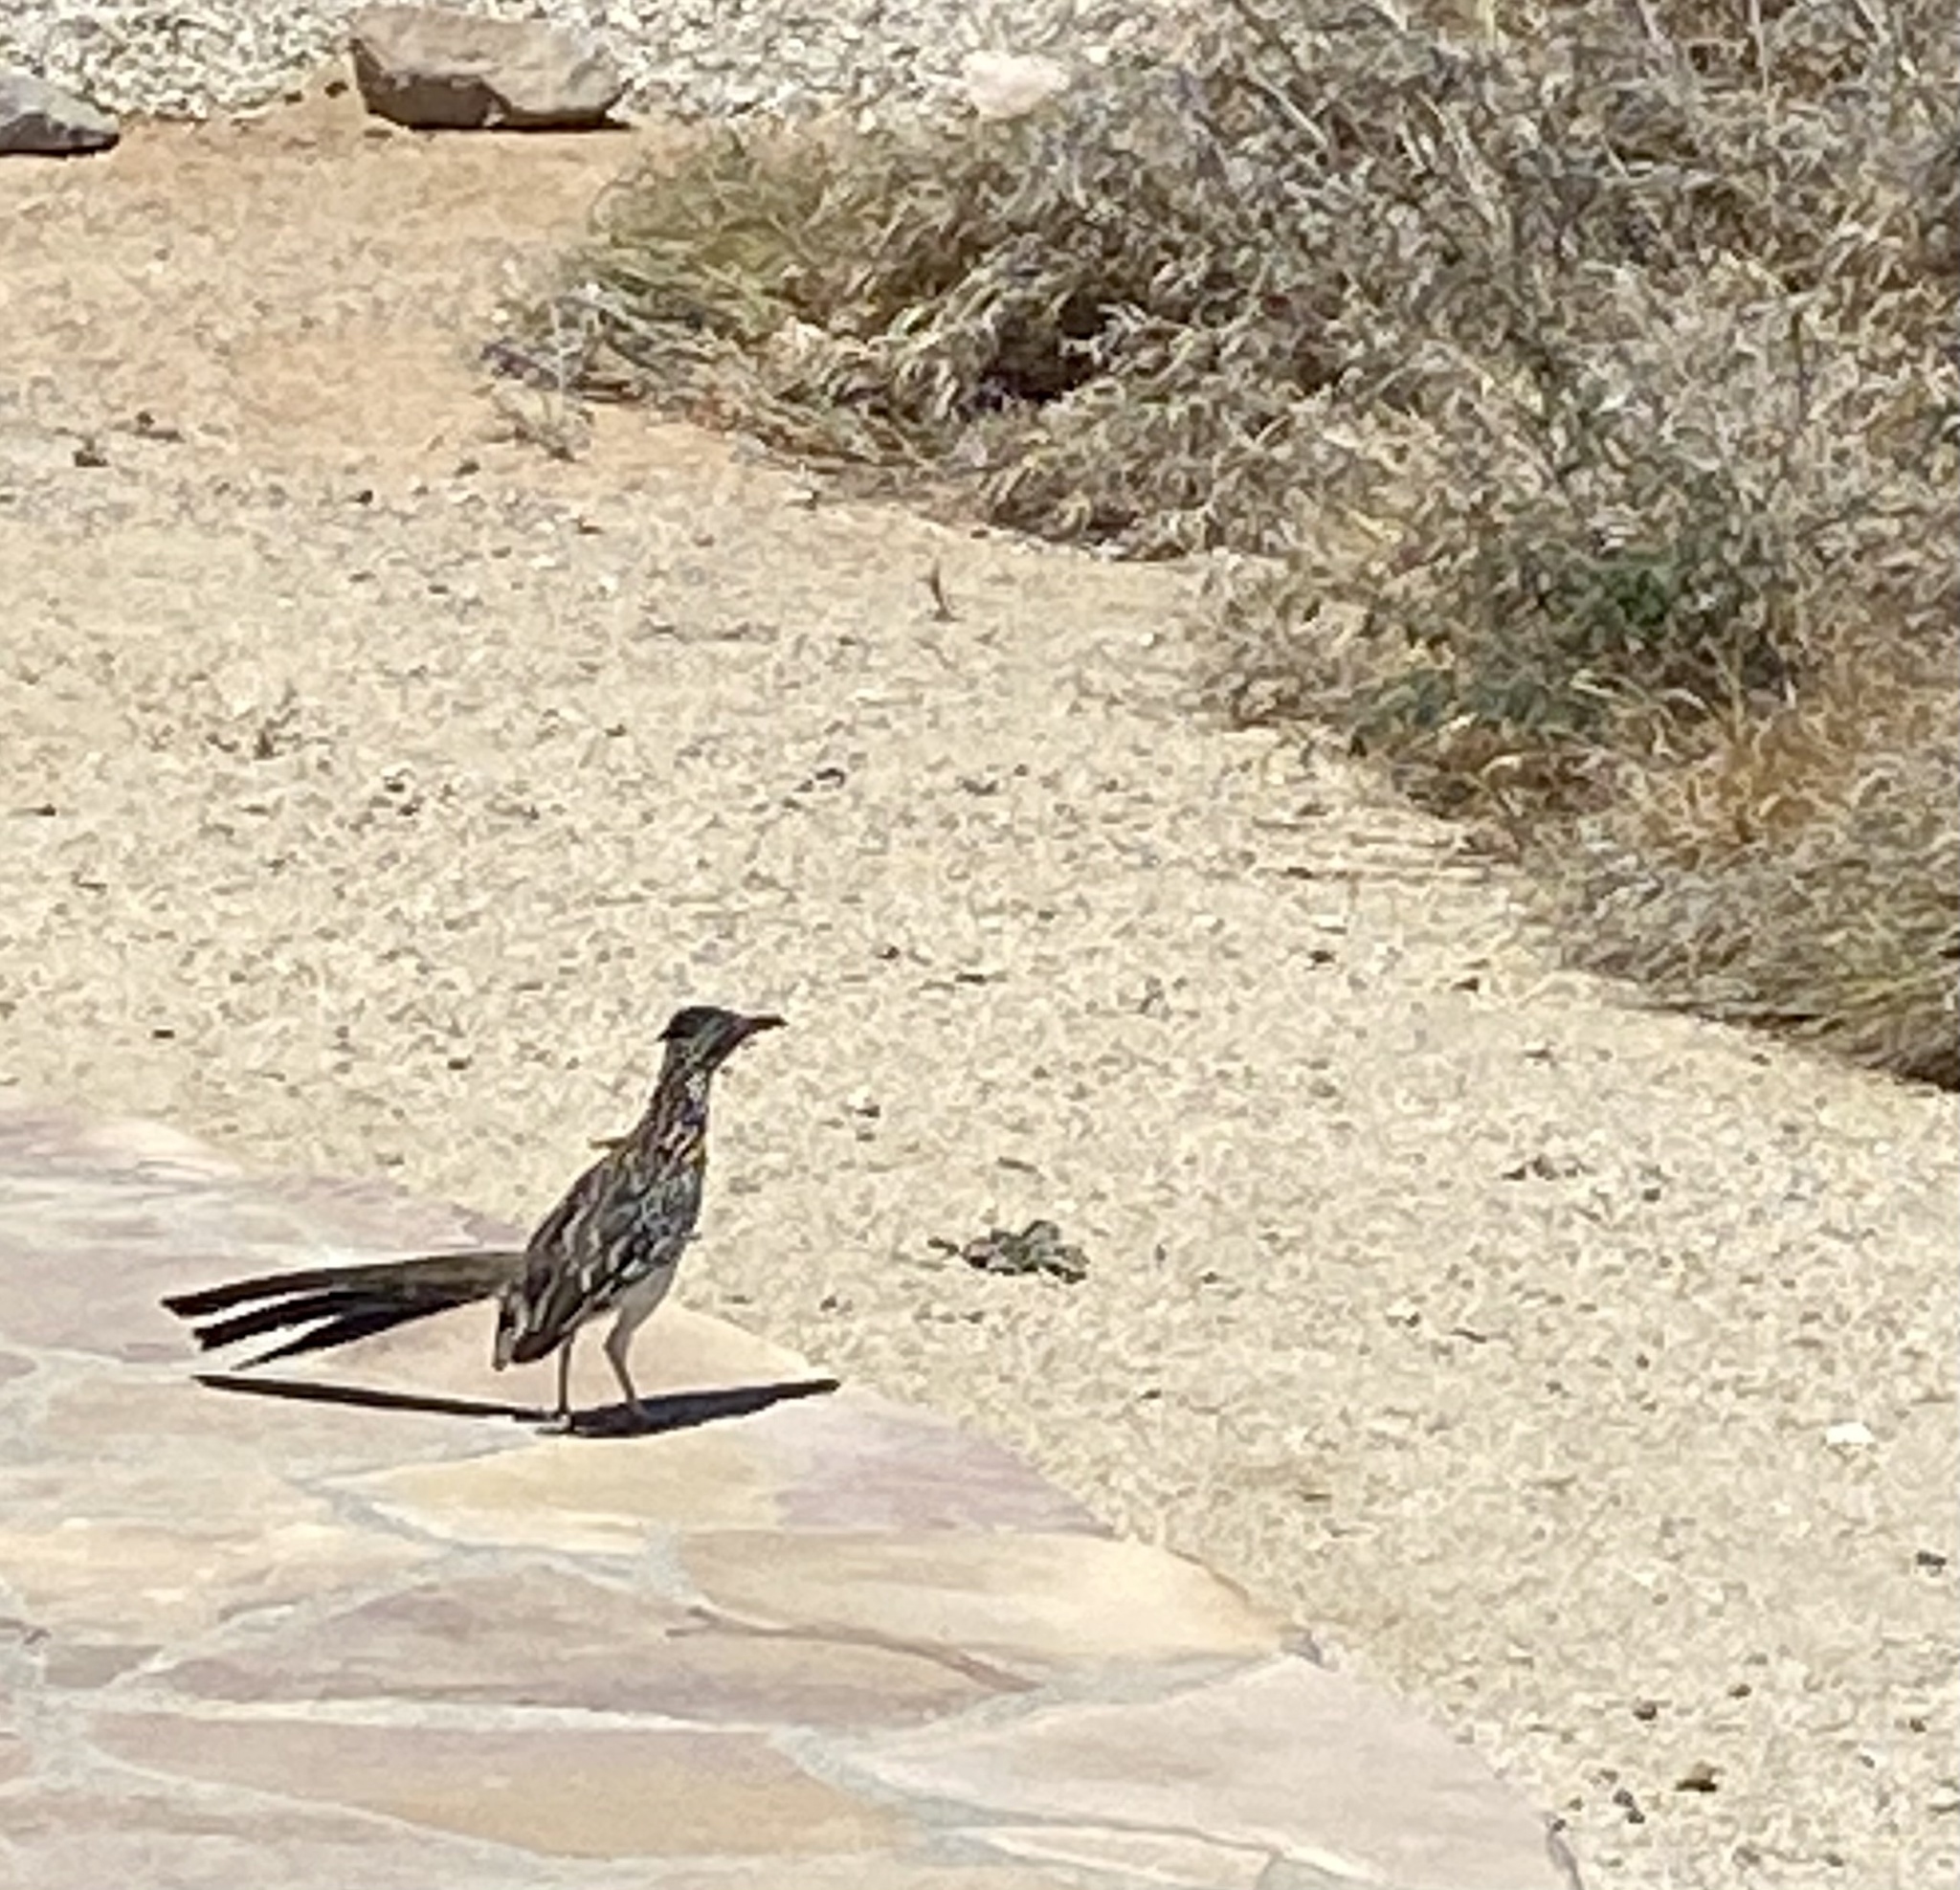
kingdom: Animalia
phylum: Chordata
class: Aves
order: Cuculiformes
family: Cuculidae
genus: Geococcyx
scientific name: Geococcyx californianus
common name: Greater roadrunner
